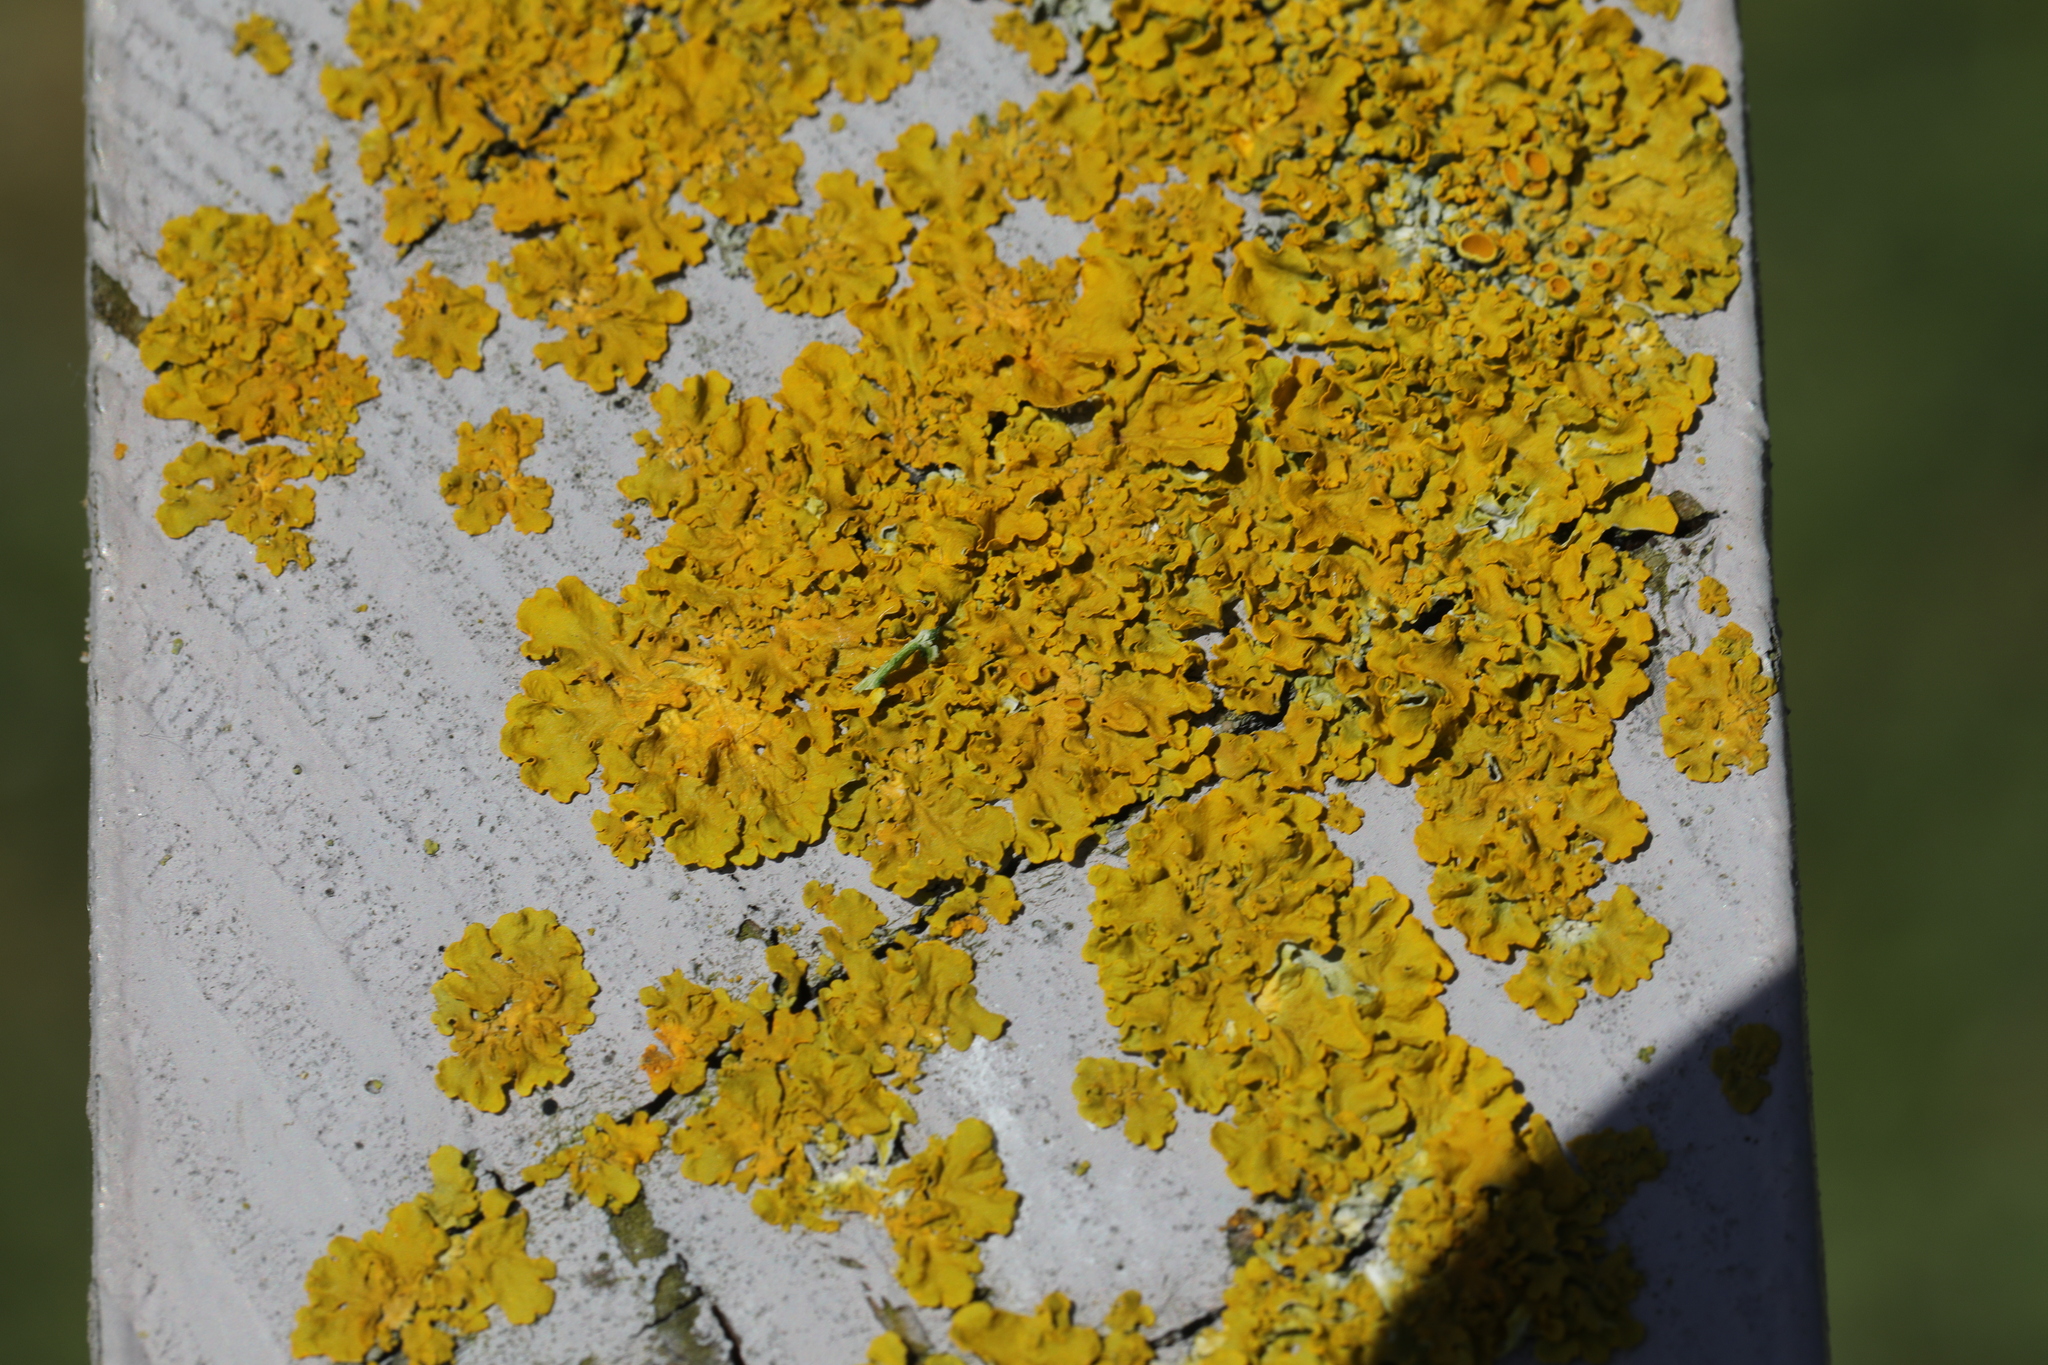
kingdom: Fungi
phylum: Ascomycota
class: Lecanoromycetes
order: Teloschistales
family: Teloschistaceae
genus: Xanthoria
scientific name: Xanthoria parietina
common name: Common orange lichen
